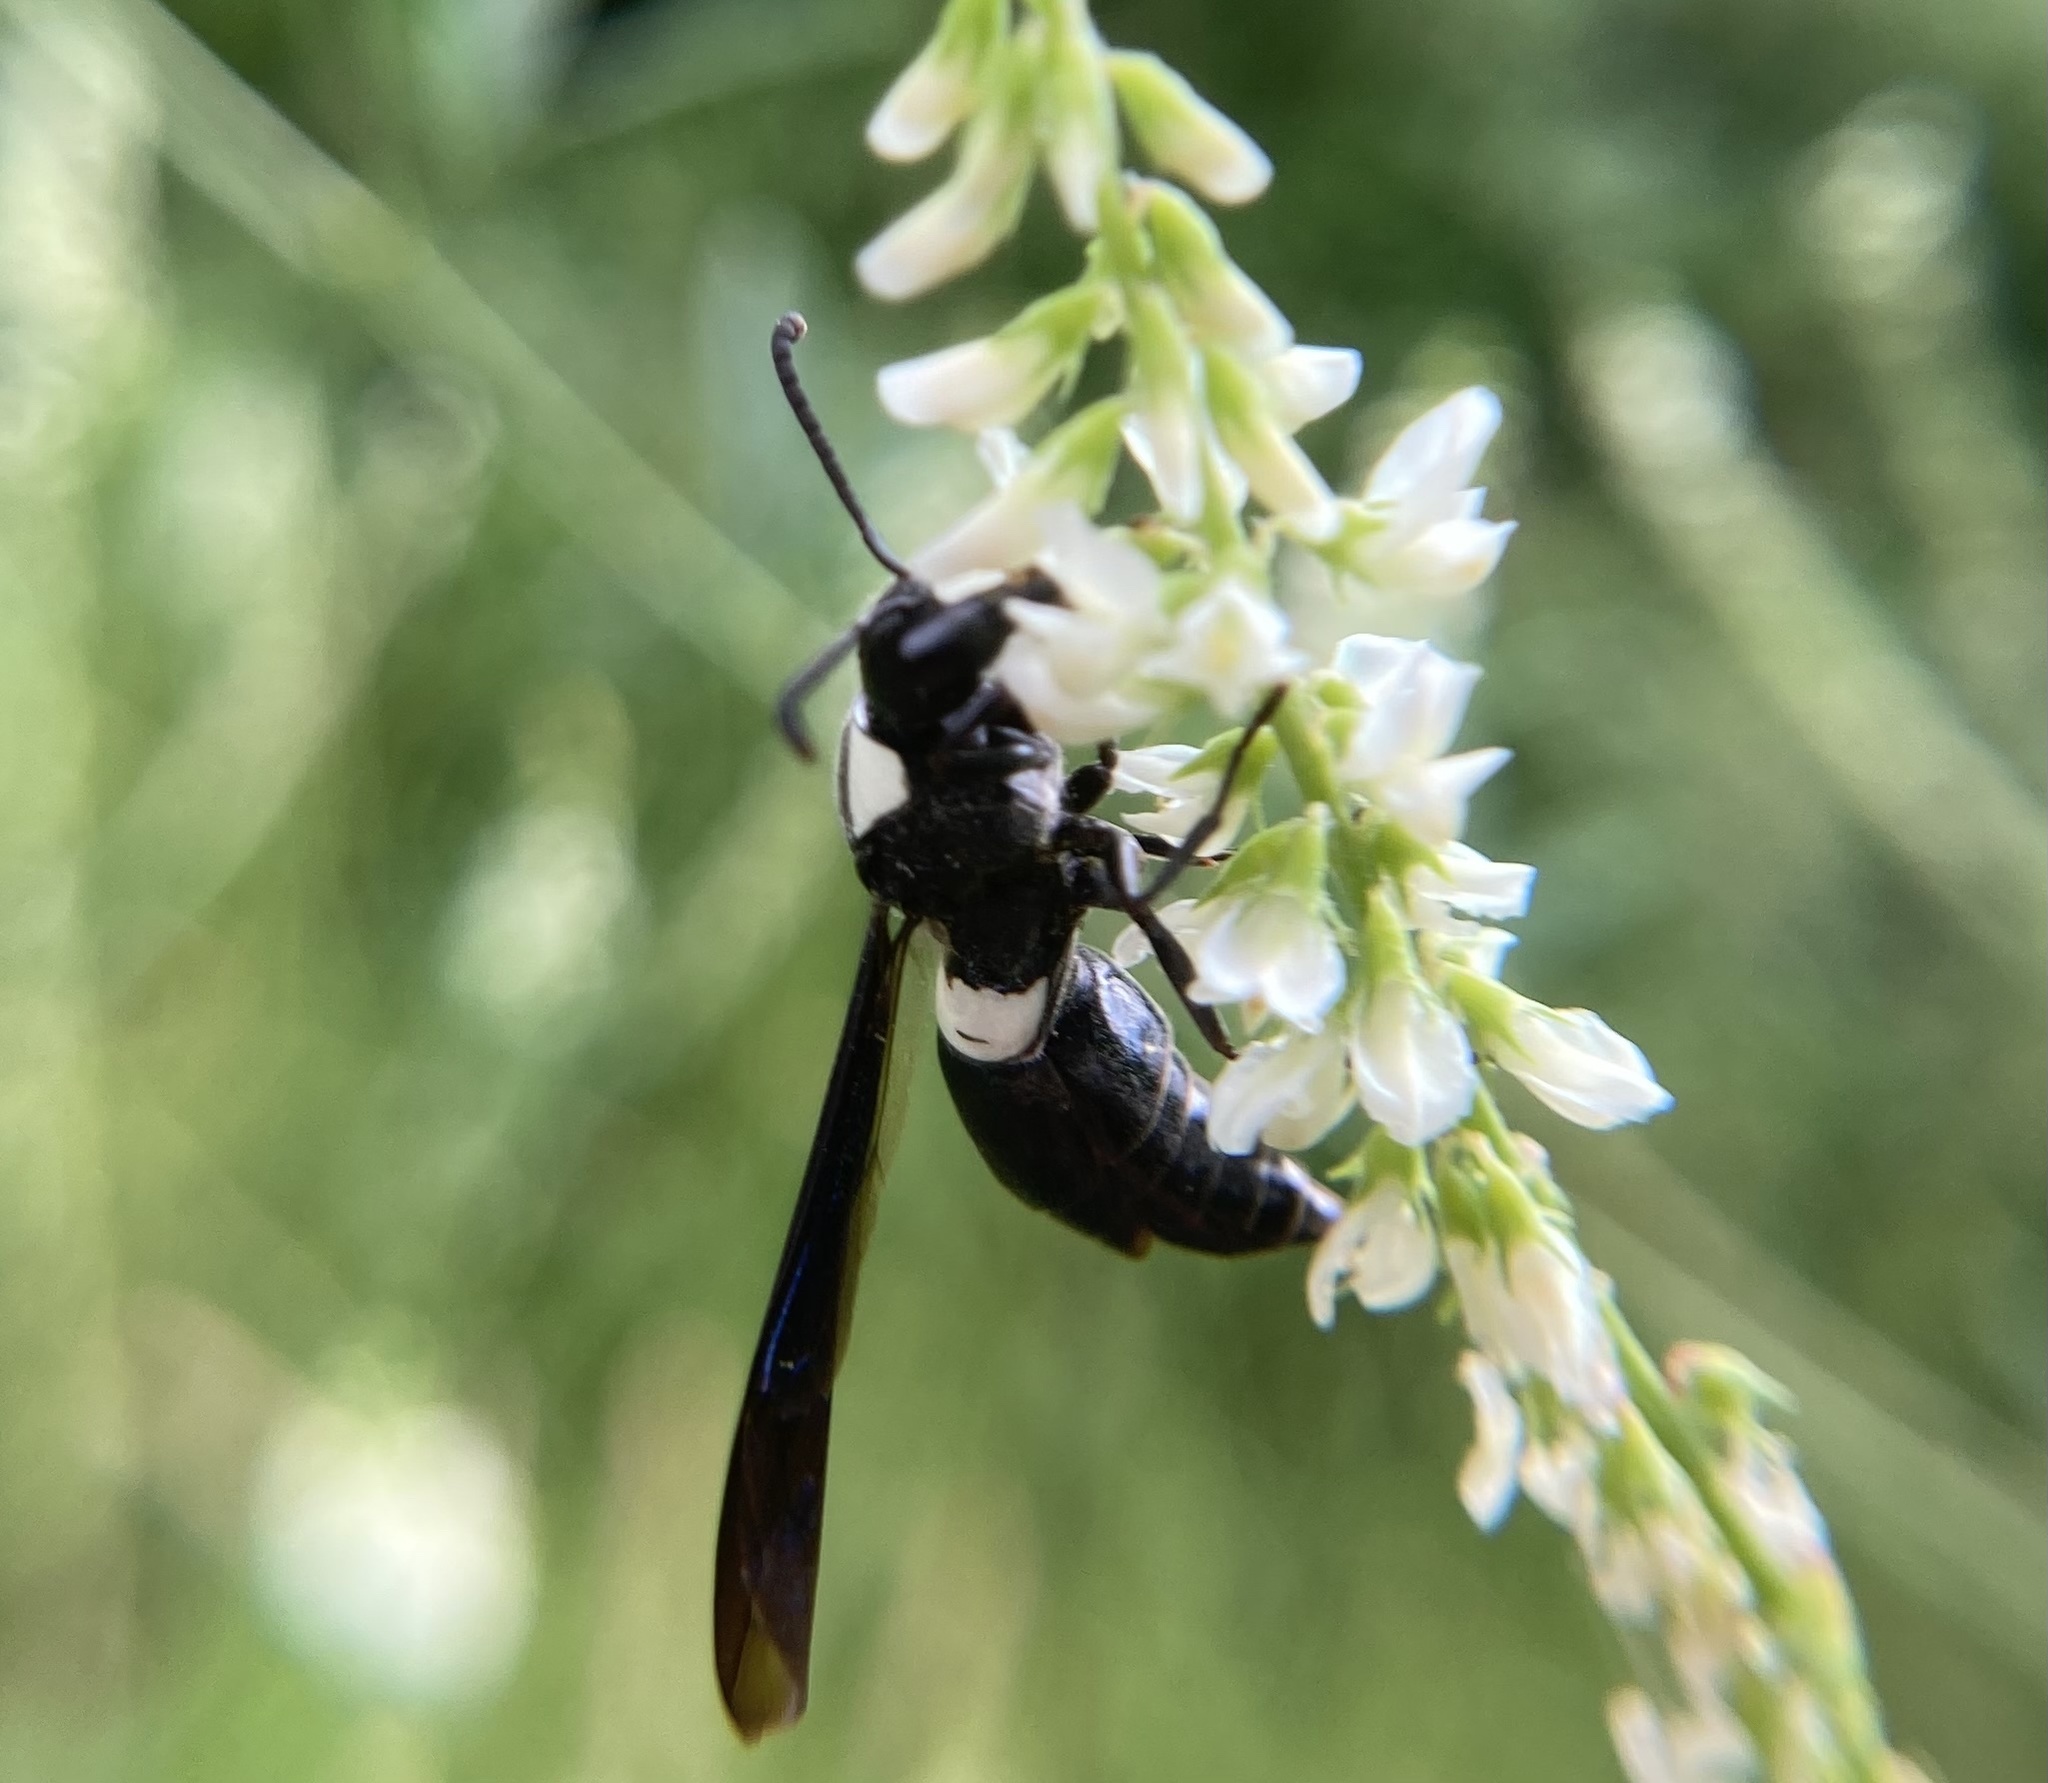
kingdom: Animalia
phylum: Arthropoda
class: Insecta
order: Hymenoptera
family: Eumenidae
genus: Monobia
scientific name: Monobia quadridens
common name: Four-toothed mason wasp
